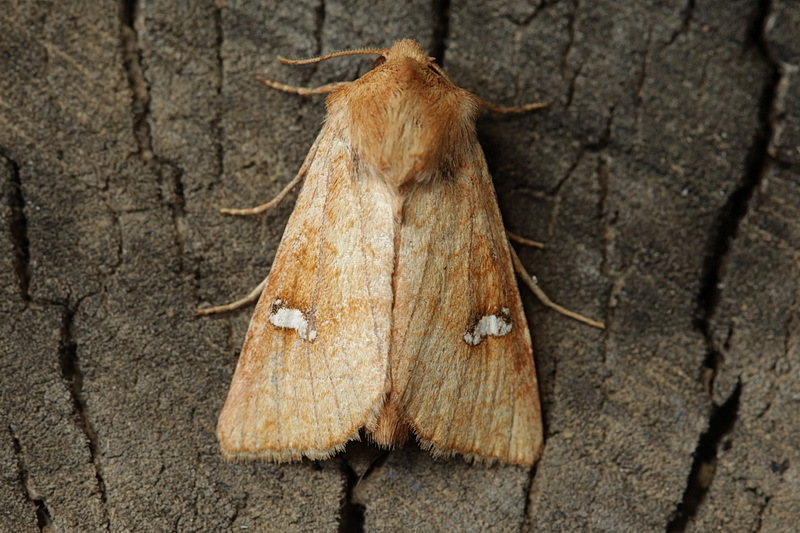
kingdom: Animalia
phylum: Arthropoda
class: Insecta
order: Lepidoptera
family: Noctuidae
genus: Amphipoea
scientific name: Amphipoea ochreola
